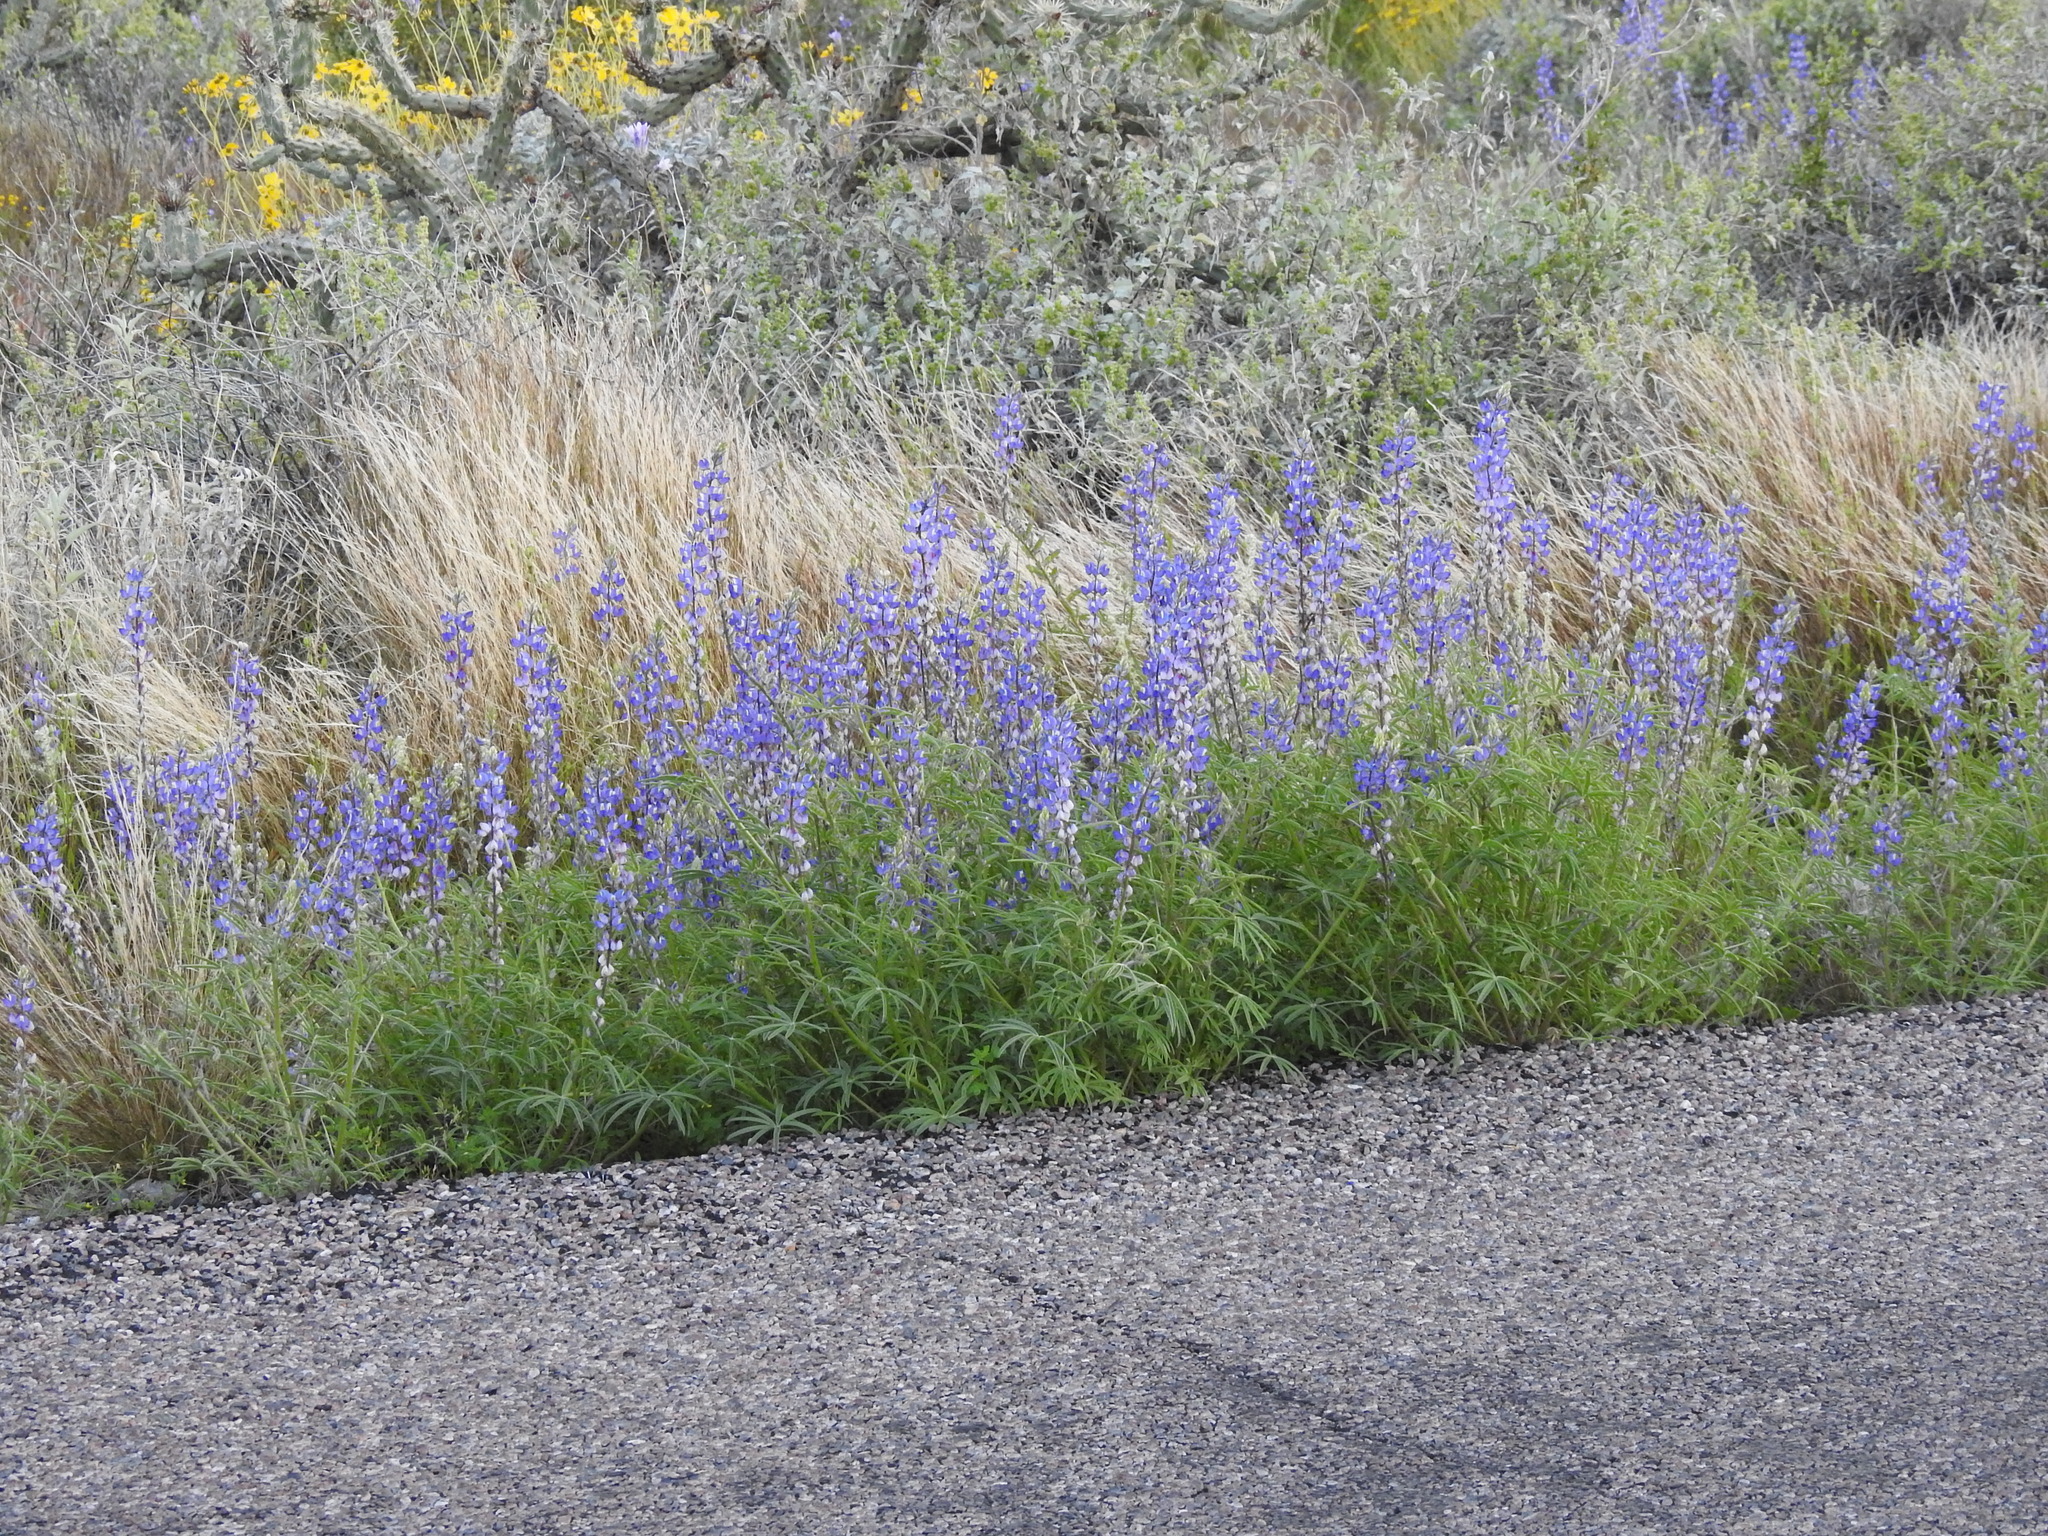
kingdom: Plantae
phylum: Tracheophyta
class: Magnoliopsida
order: Fabales
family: Fabaceae
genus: Lupinus
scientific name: Lupinus sparsiflorus
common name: Coulter's lupine
